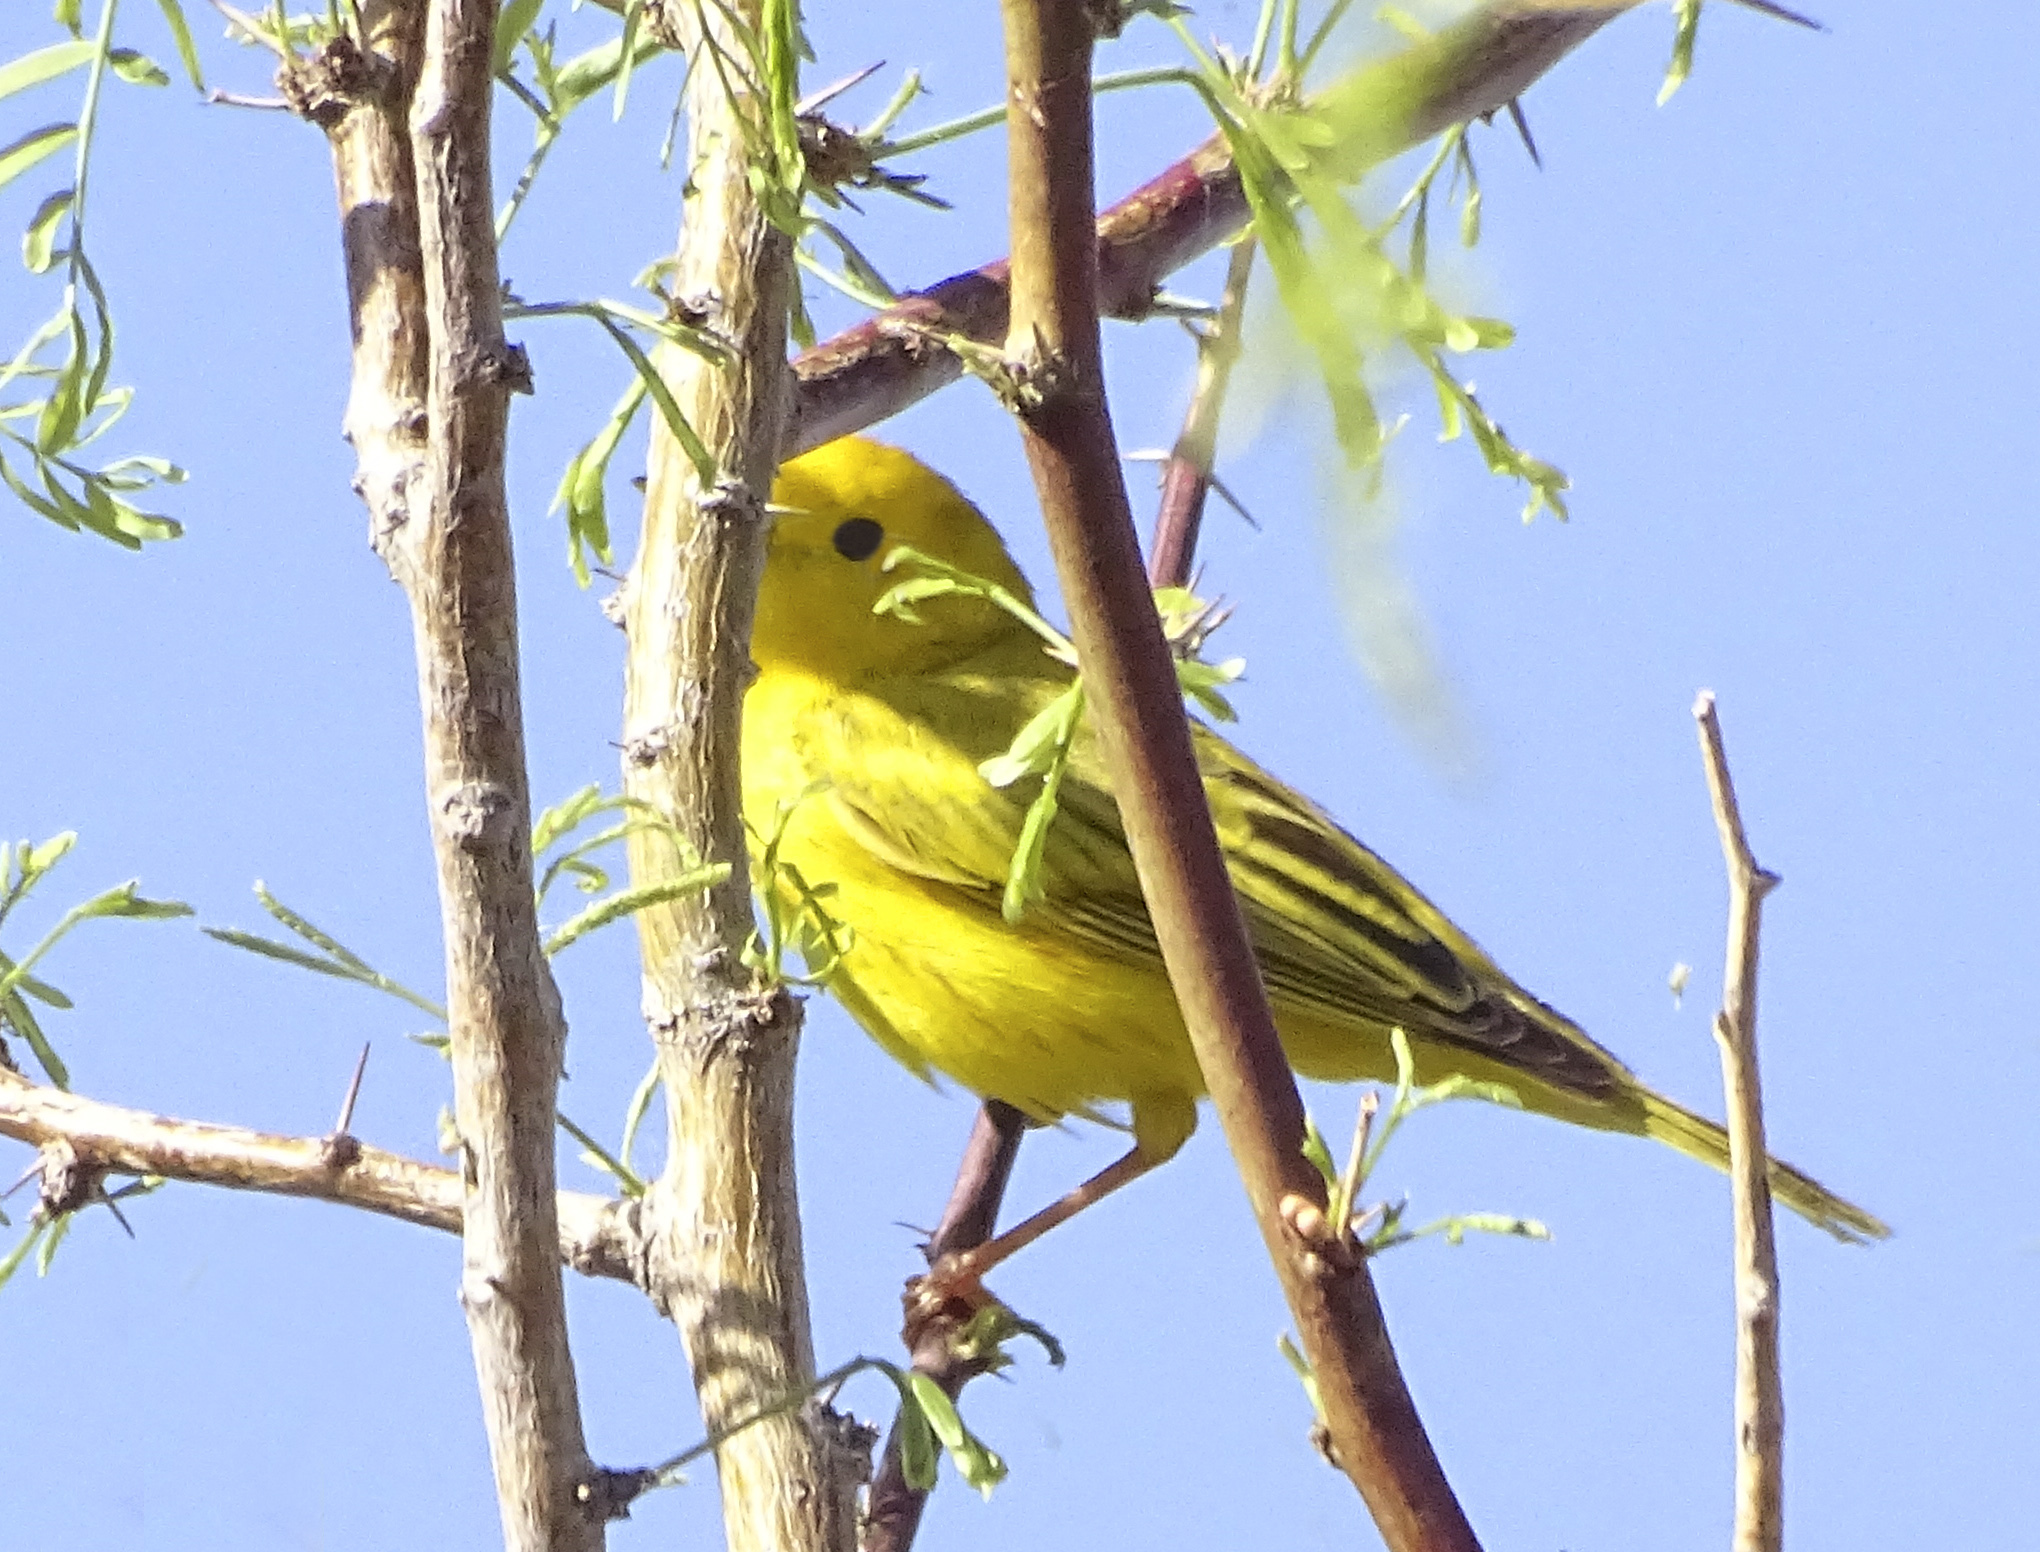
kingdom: Animalia
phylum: Chordata
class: Aves
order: Passeriformes
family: Parulidae
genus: Setophaga
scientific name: Setophaga petechia
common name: Yellow warbler
